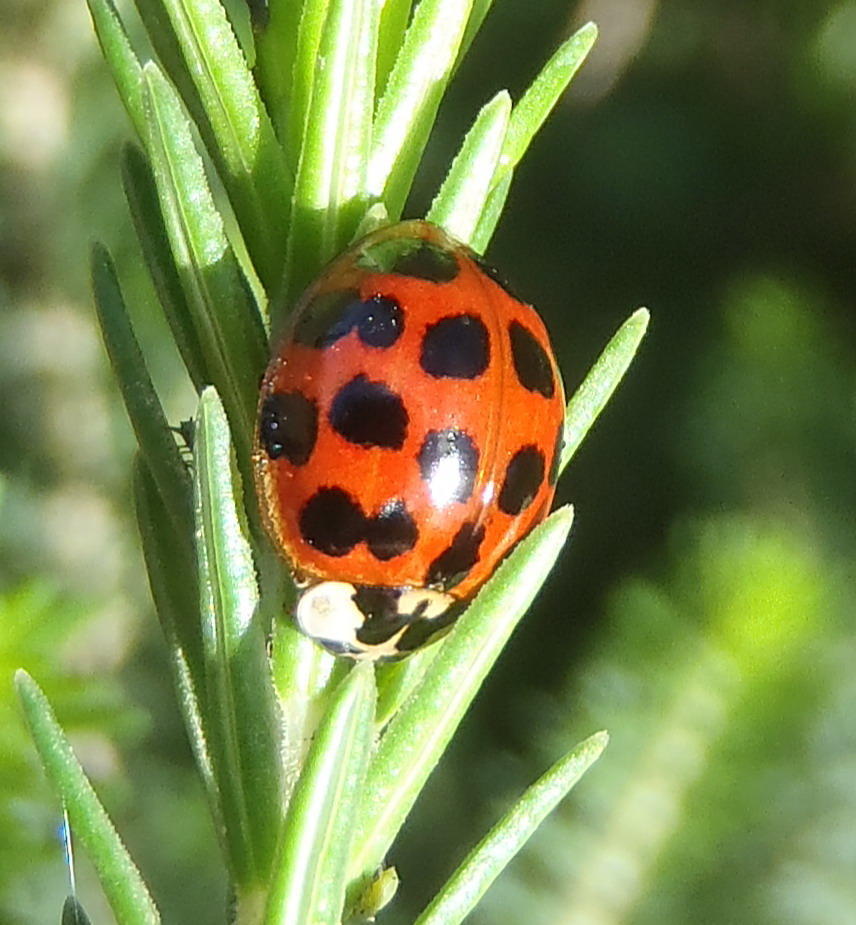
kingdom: Animalia
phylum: Arthropoda
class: Insecta
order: Coleoptera
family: Coccinellidae
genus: Harmonia
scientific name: Harmonia axyridis
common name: Harlequin ladybird
